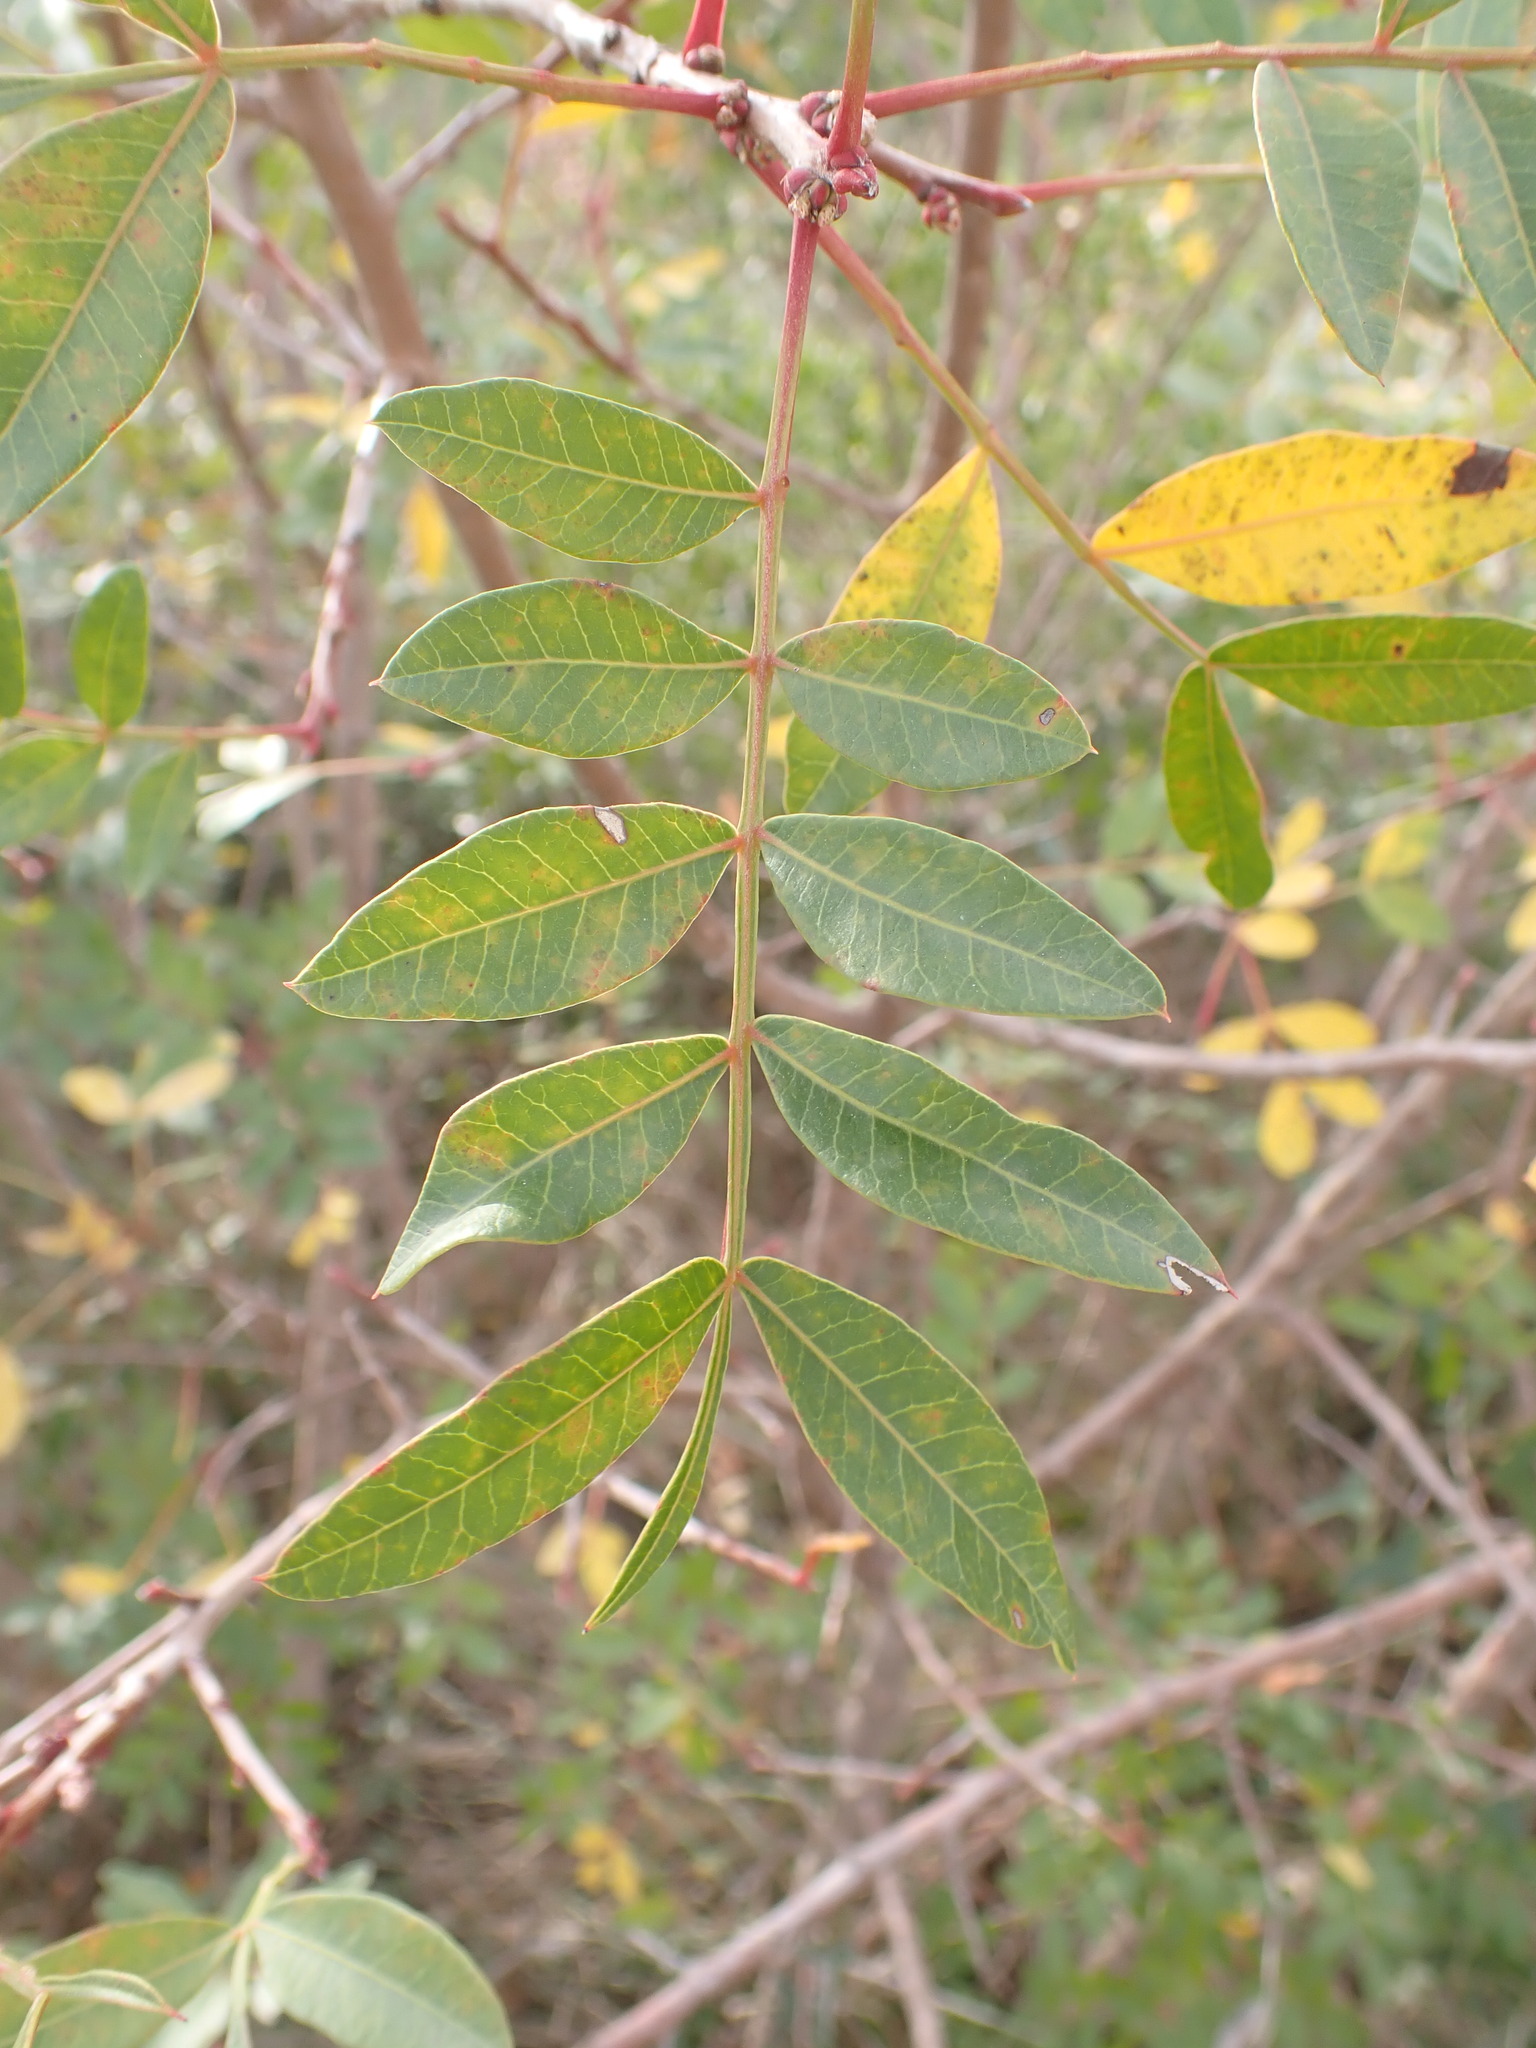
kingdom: Plantae
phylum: Tracheophyta
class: Magnoliopsida
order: Sapindales
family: Anacardiaceae
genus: Pistacia
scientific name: Pistacia terebinthus
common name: Terebinth
